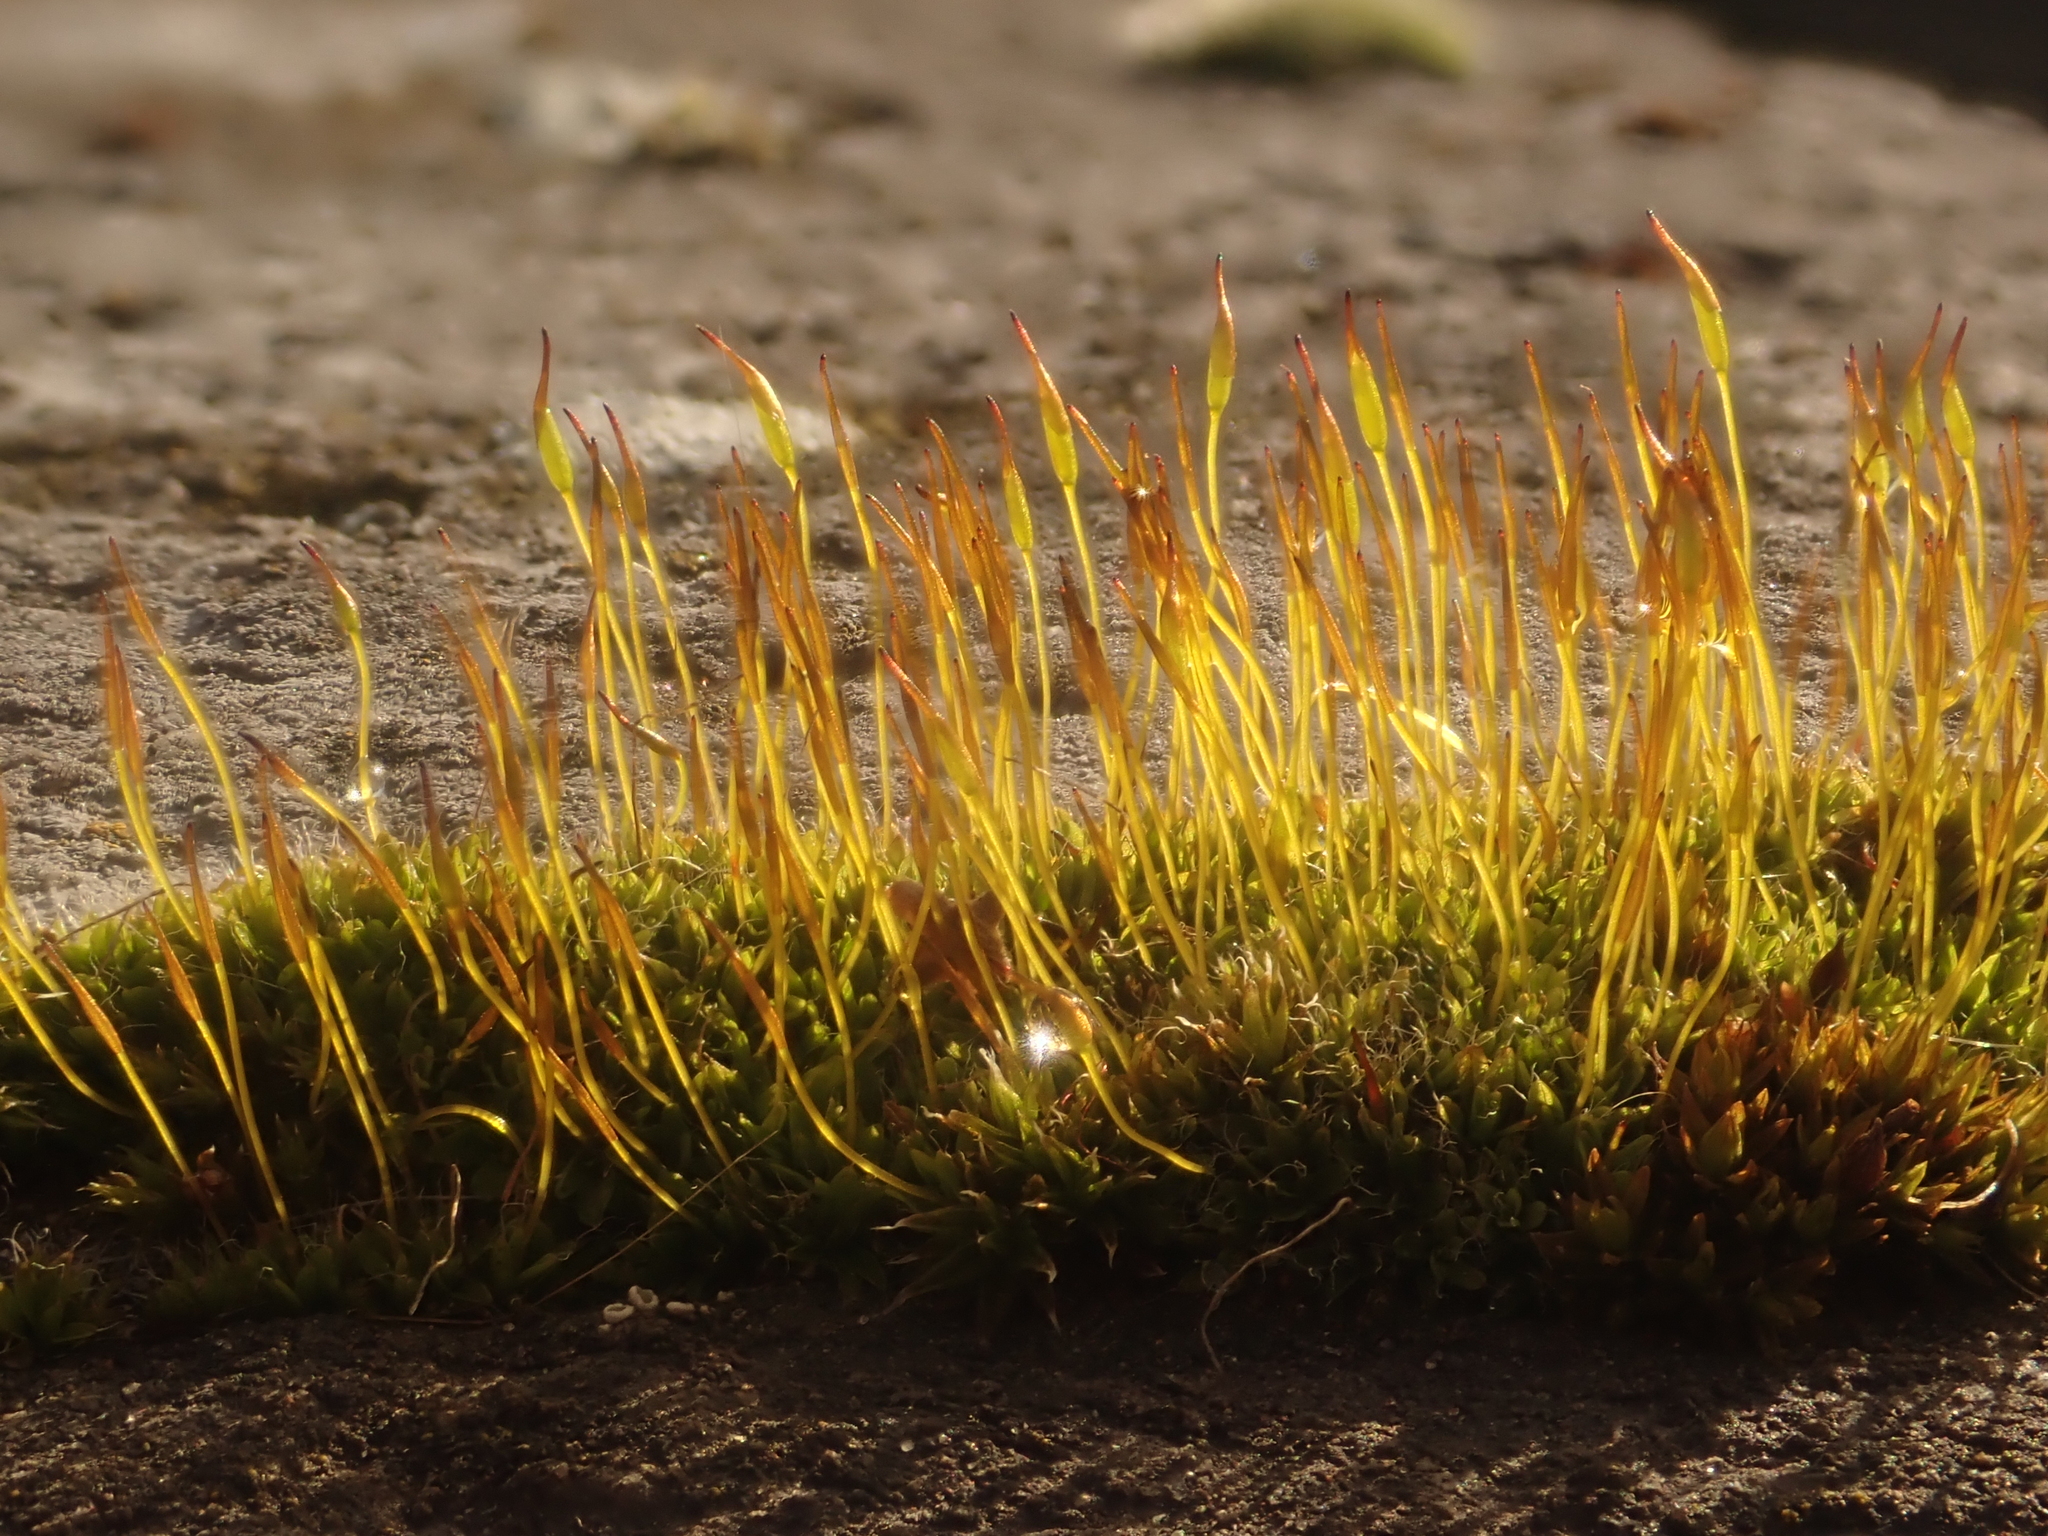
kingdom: Plantae
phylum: Bryophyta
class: Bryopsida
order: Pottiales
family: Pottiaceae
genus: Tortula
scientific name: Tortula muralis
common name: Wall screw-moss
